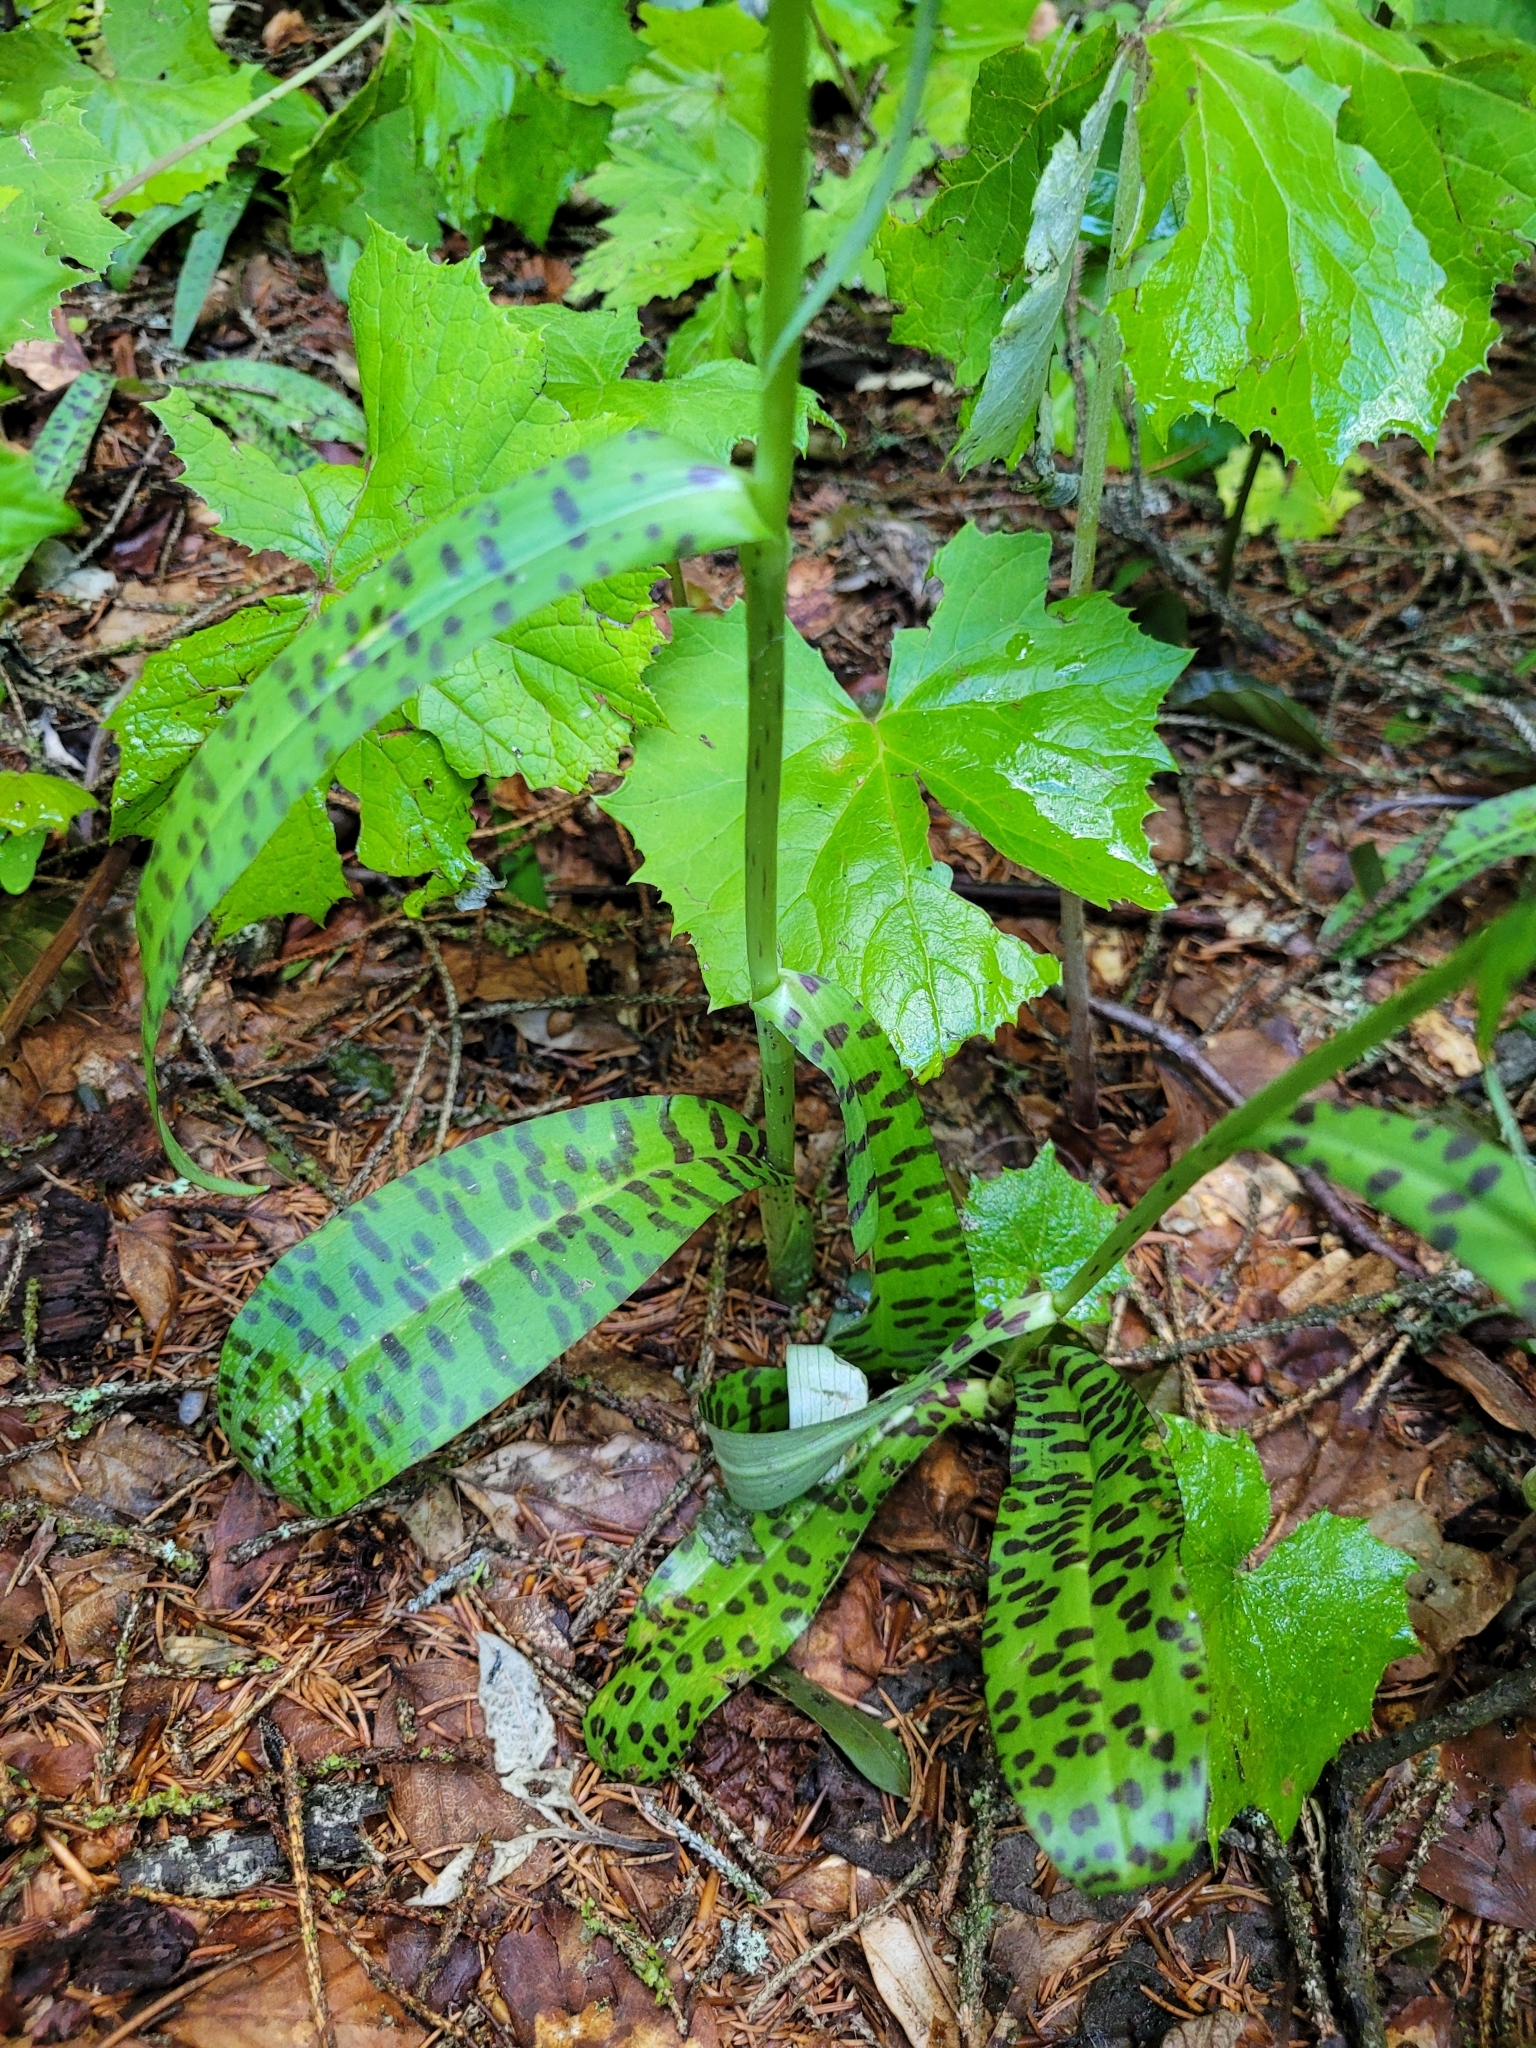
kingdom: Plantae
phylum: Tracheophyta
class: Liliopsida
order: Asparagales
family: Orchidaceae
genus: Dactylorhiza
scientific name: Dactylorhiza maculata
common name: Heath spotted-orchid
